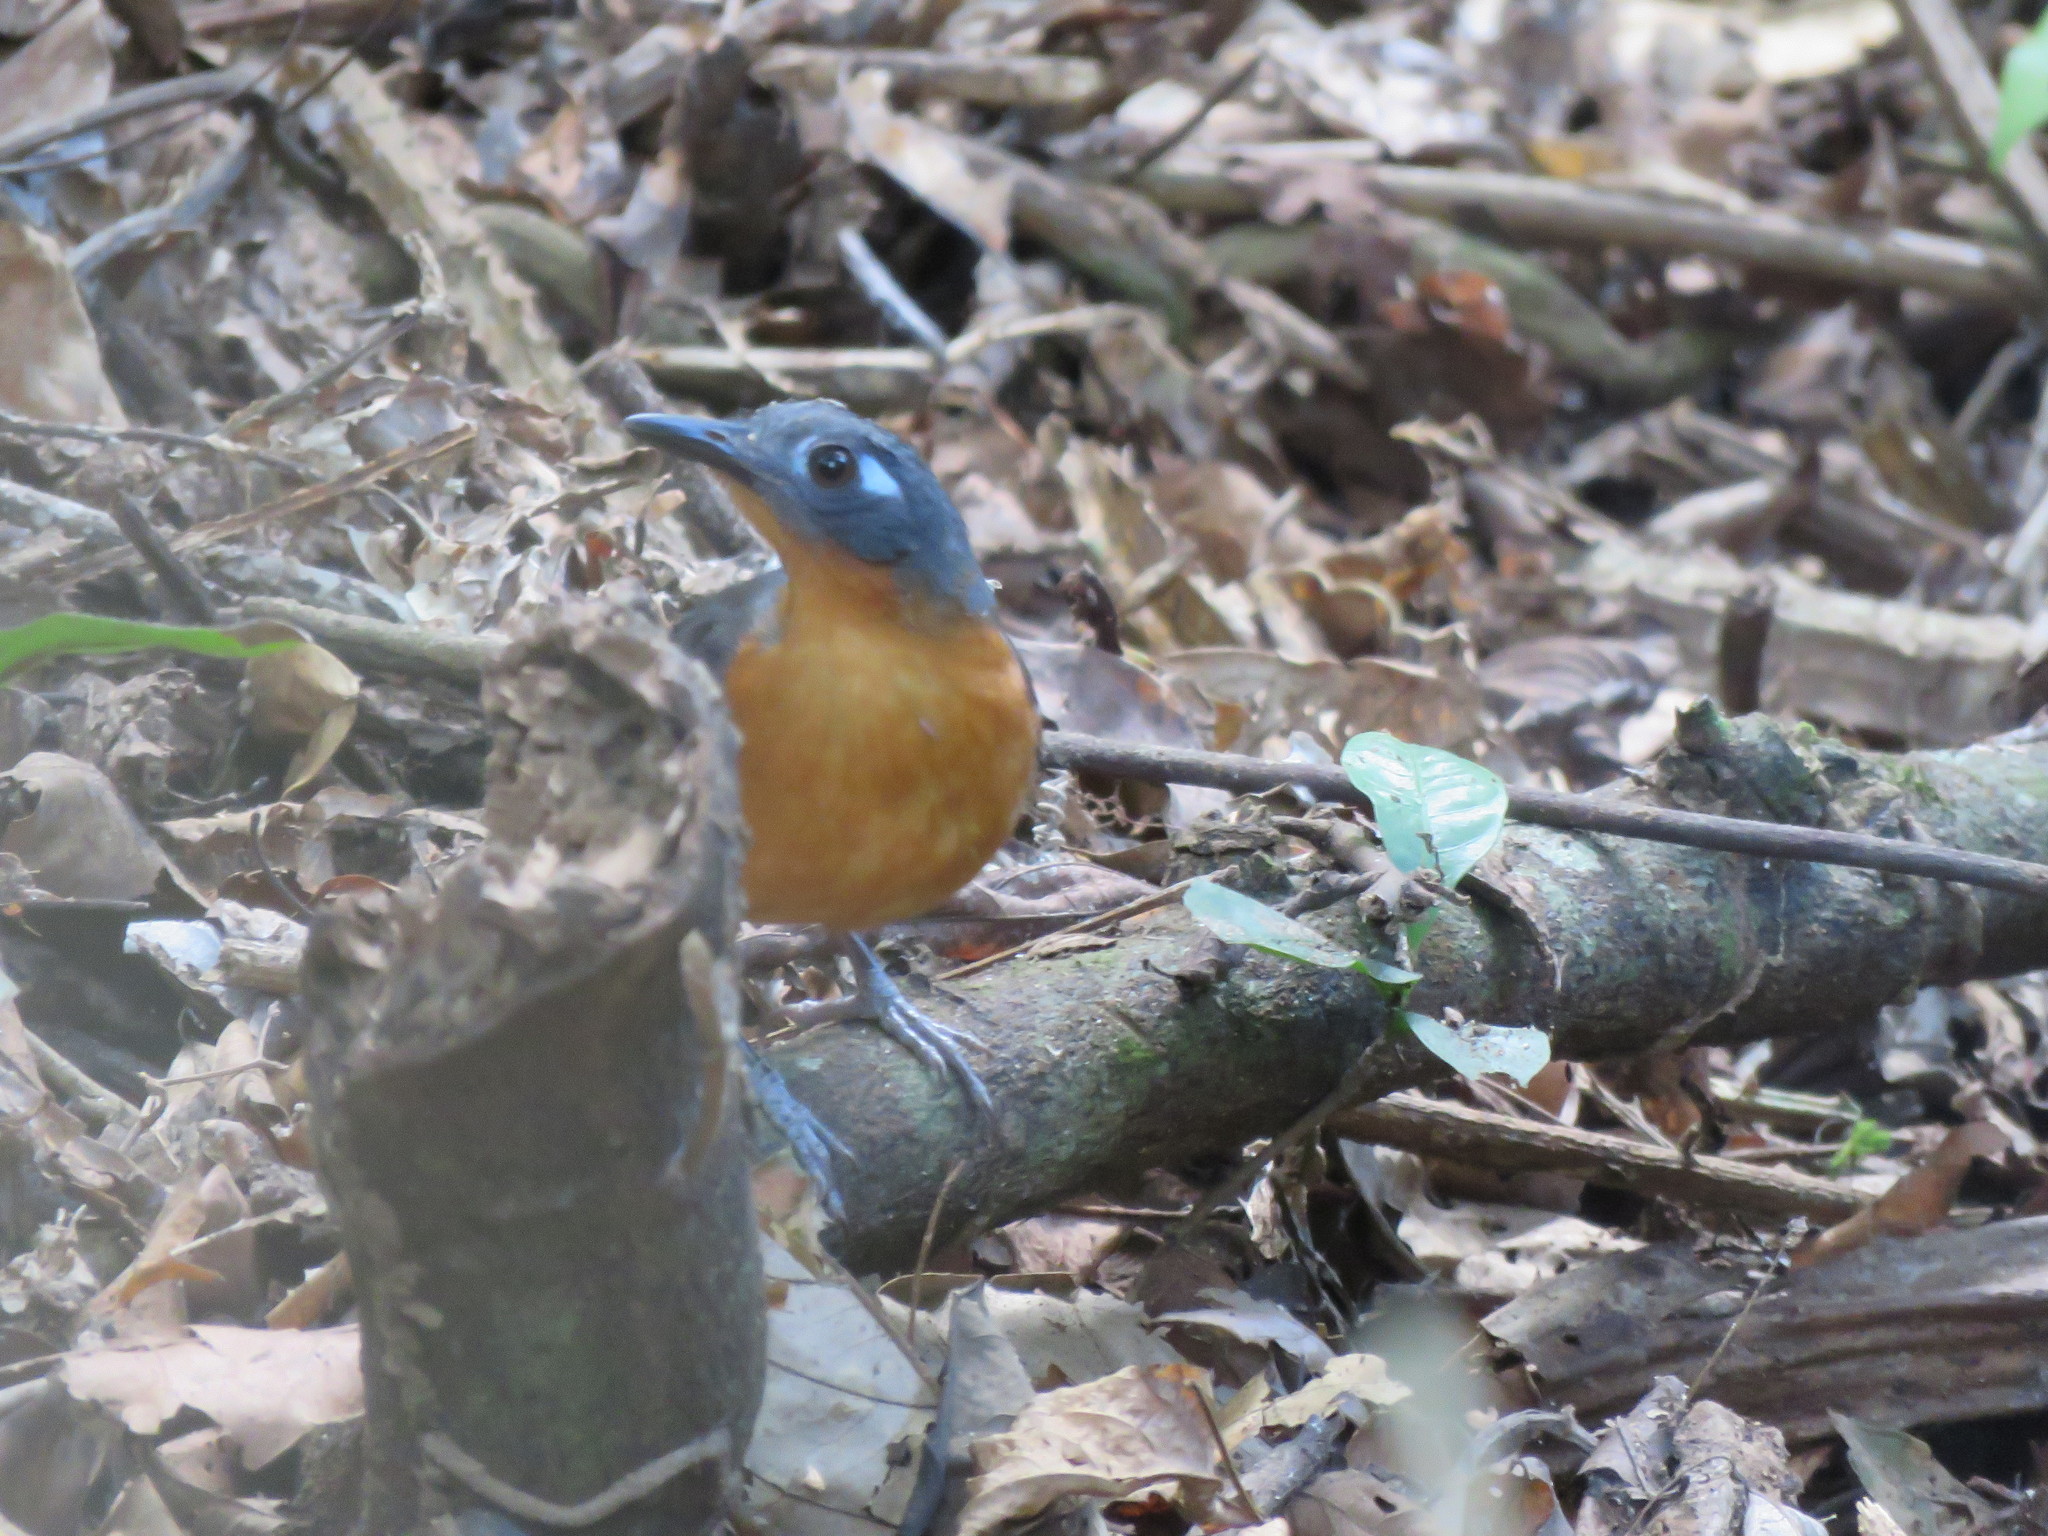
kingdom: Animalia
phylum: Chordata
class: Aves
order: Passeriformes
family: Thamnophilidae
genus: Myrmeciza
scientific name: Myrmeciza hyperythra
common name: Plumbeous antbird
